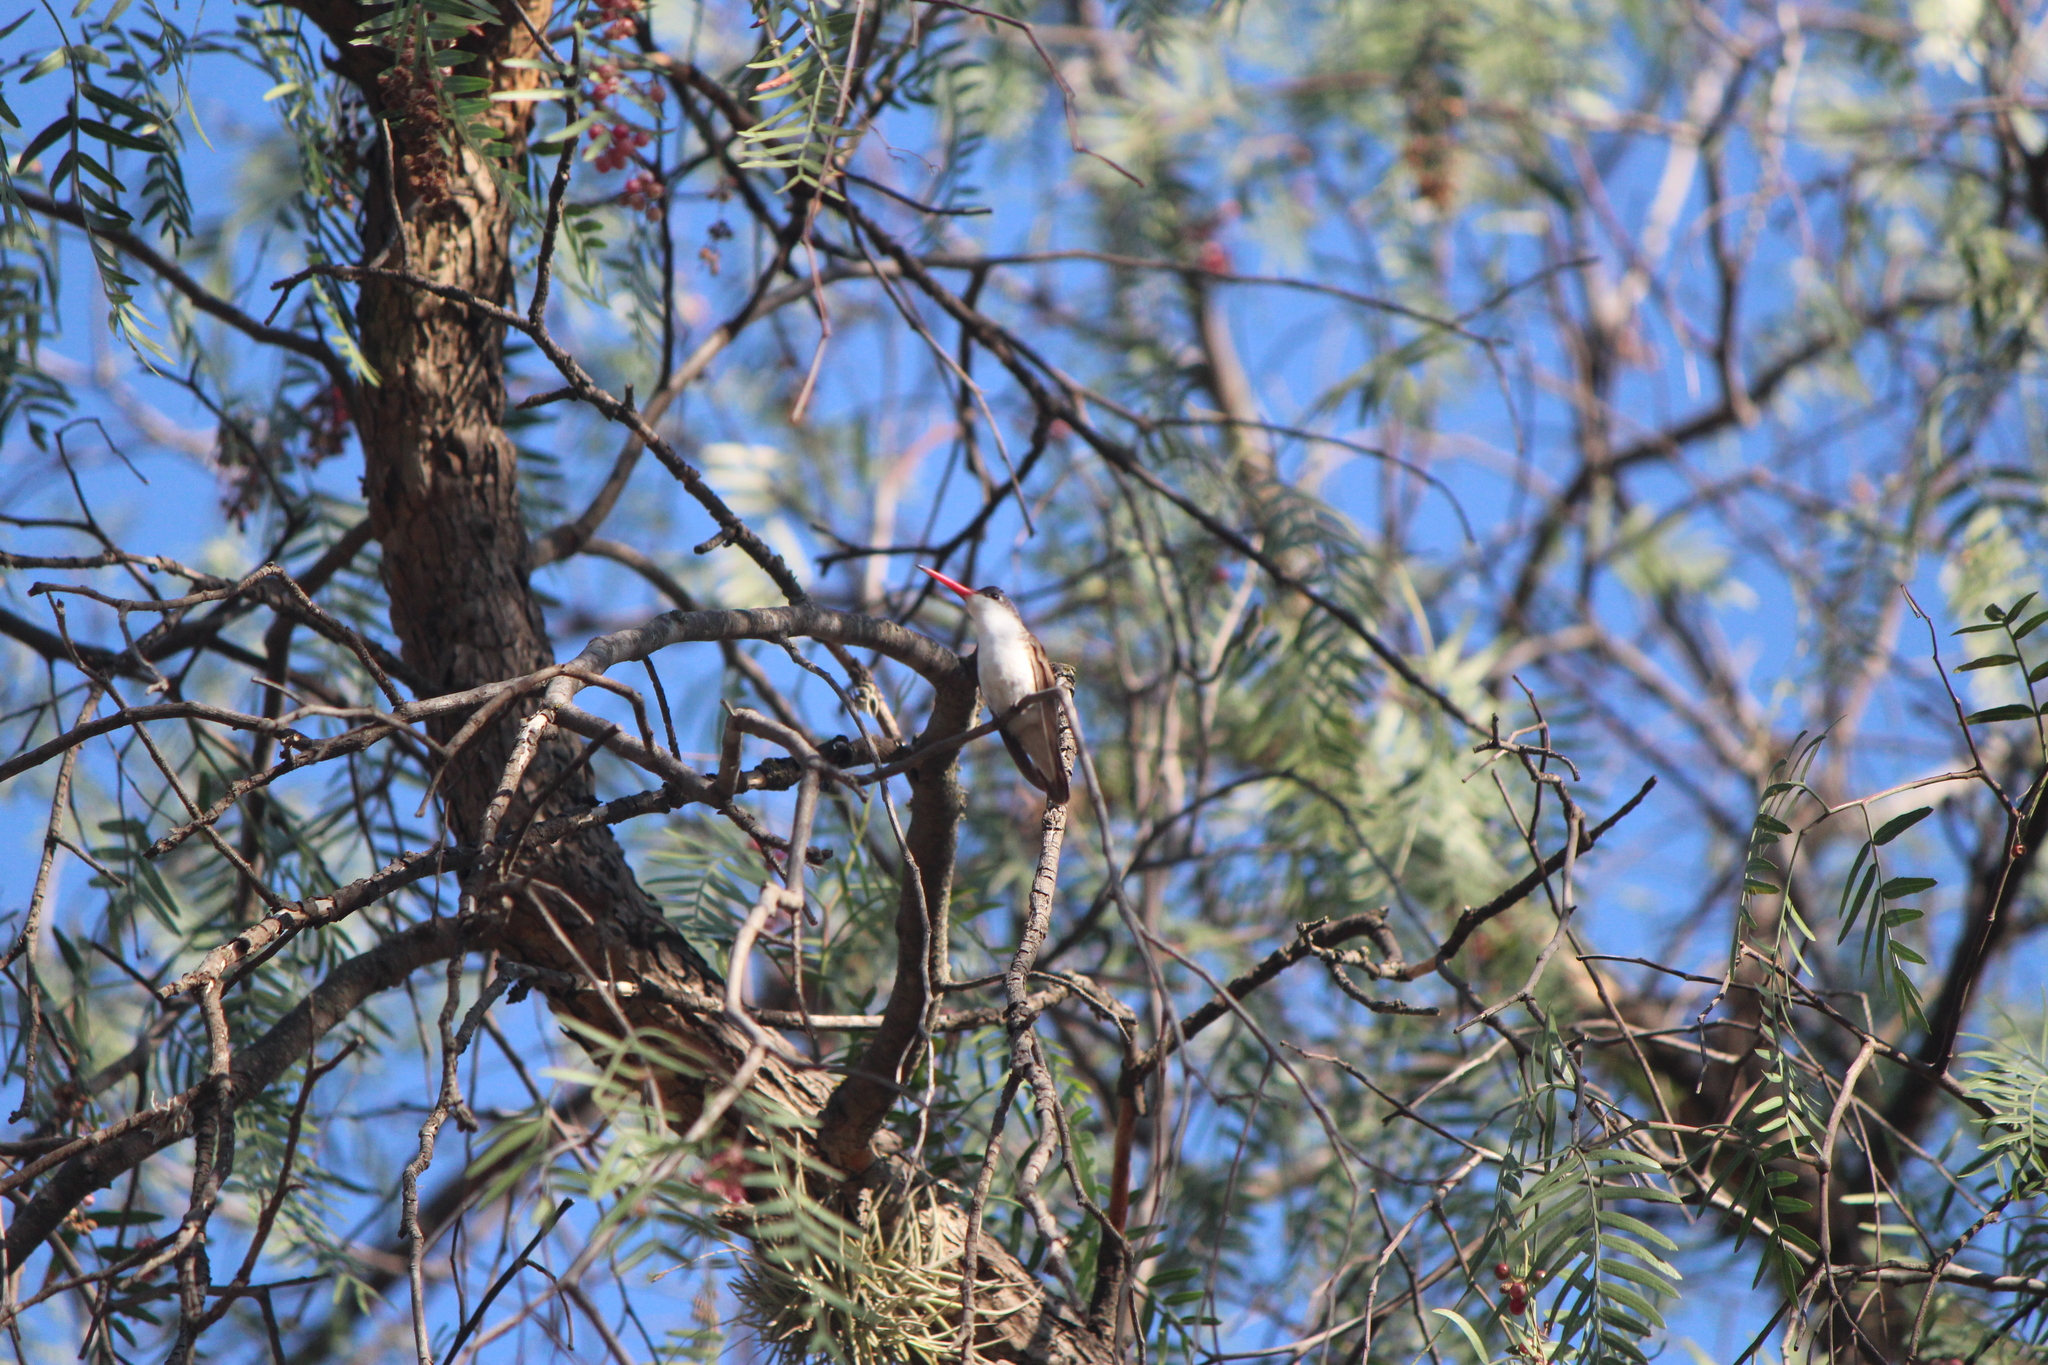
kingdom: Animalia
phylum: Chordata
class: Aves
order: Apodiformes
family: Trochilidae
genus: Leucolia
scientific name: Leucolia violiceps
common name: Violet-crowned hummingbird
